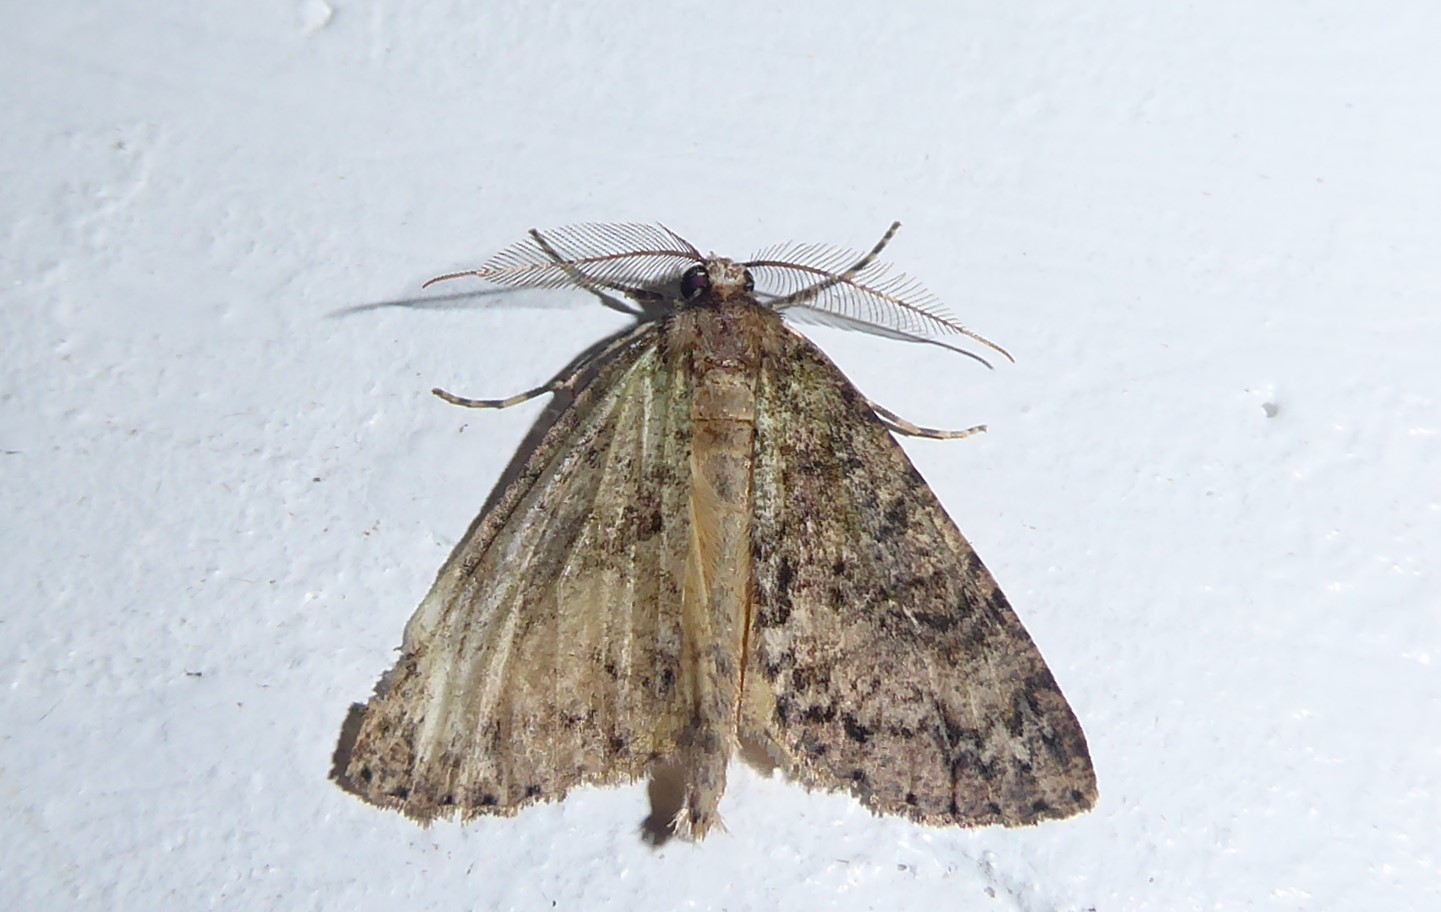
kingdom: Animalia
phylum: Arthropoda
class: Insecta
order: Lepidoptera
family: Geometridae
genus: Pseudocoremia
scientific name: Pseudocoremia suavis
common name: Common forest looper
